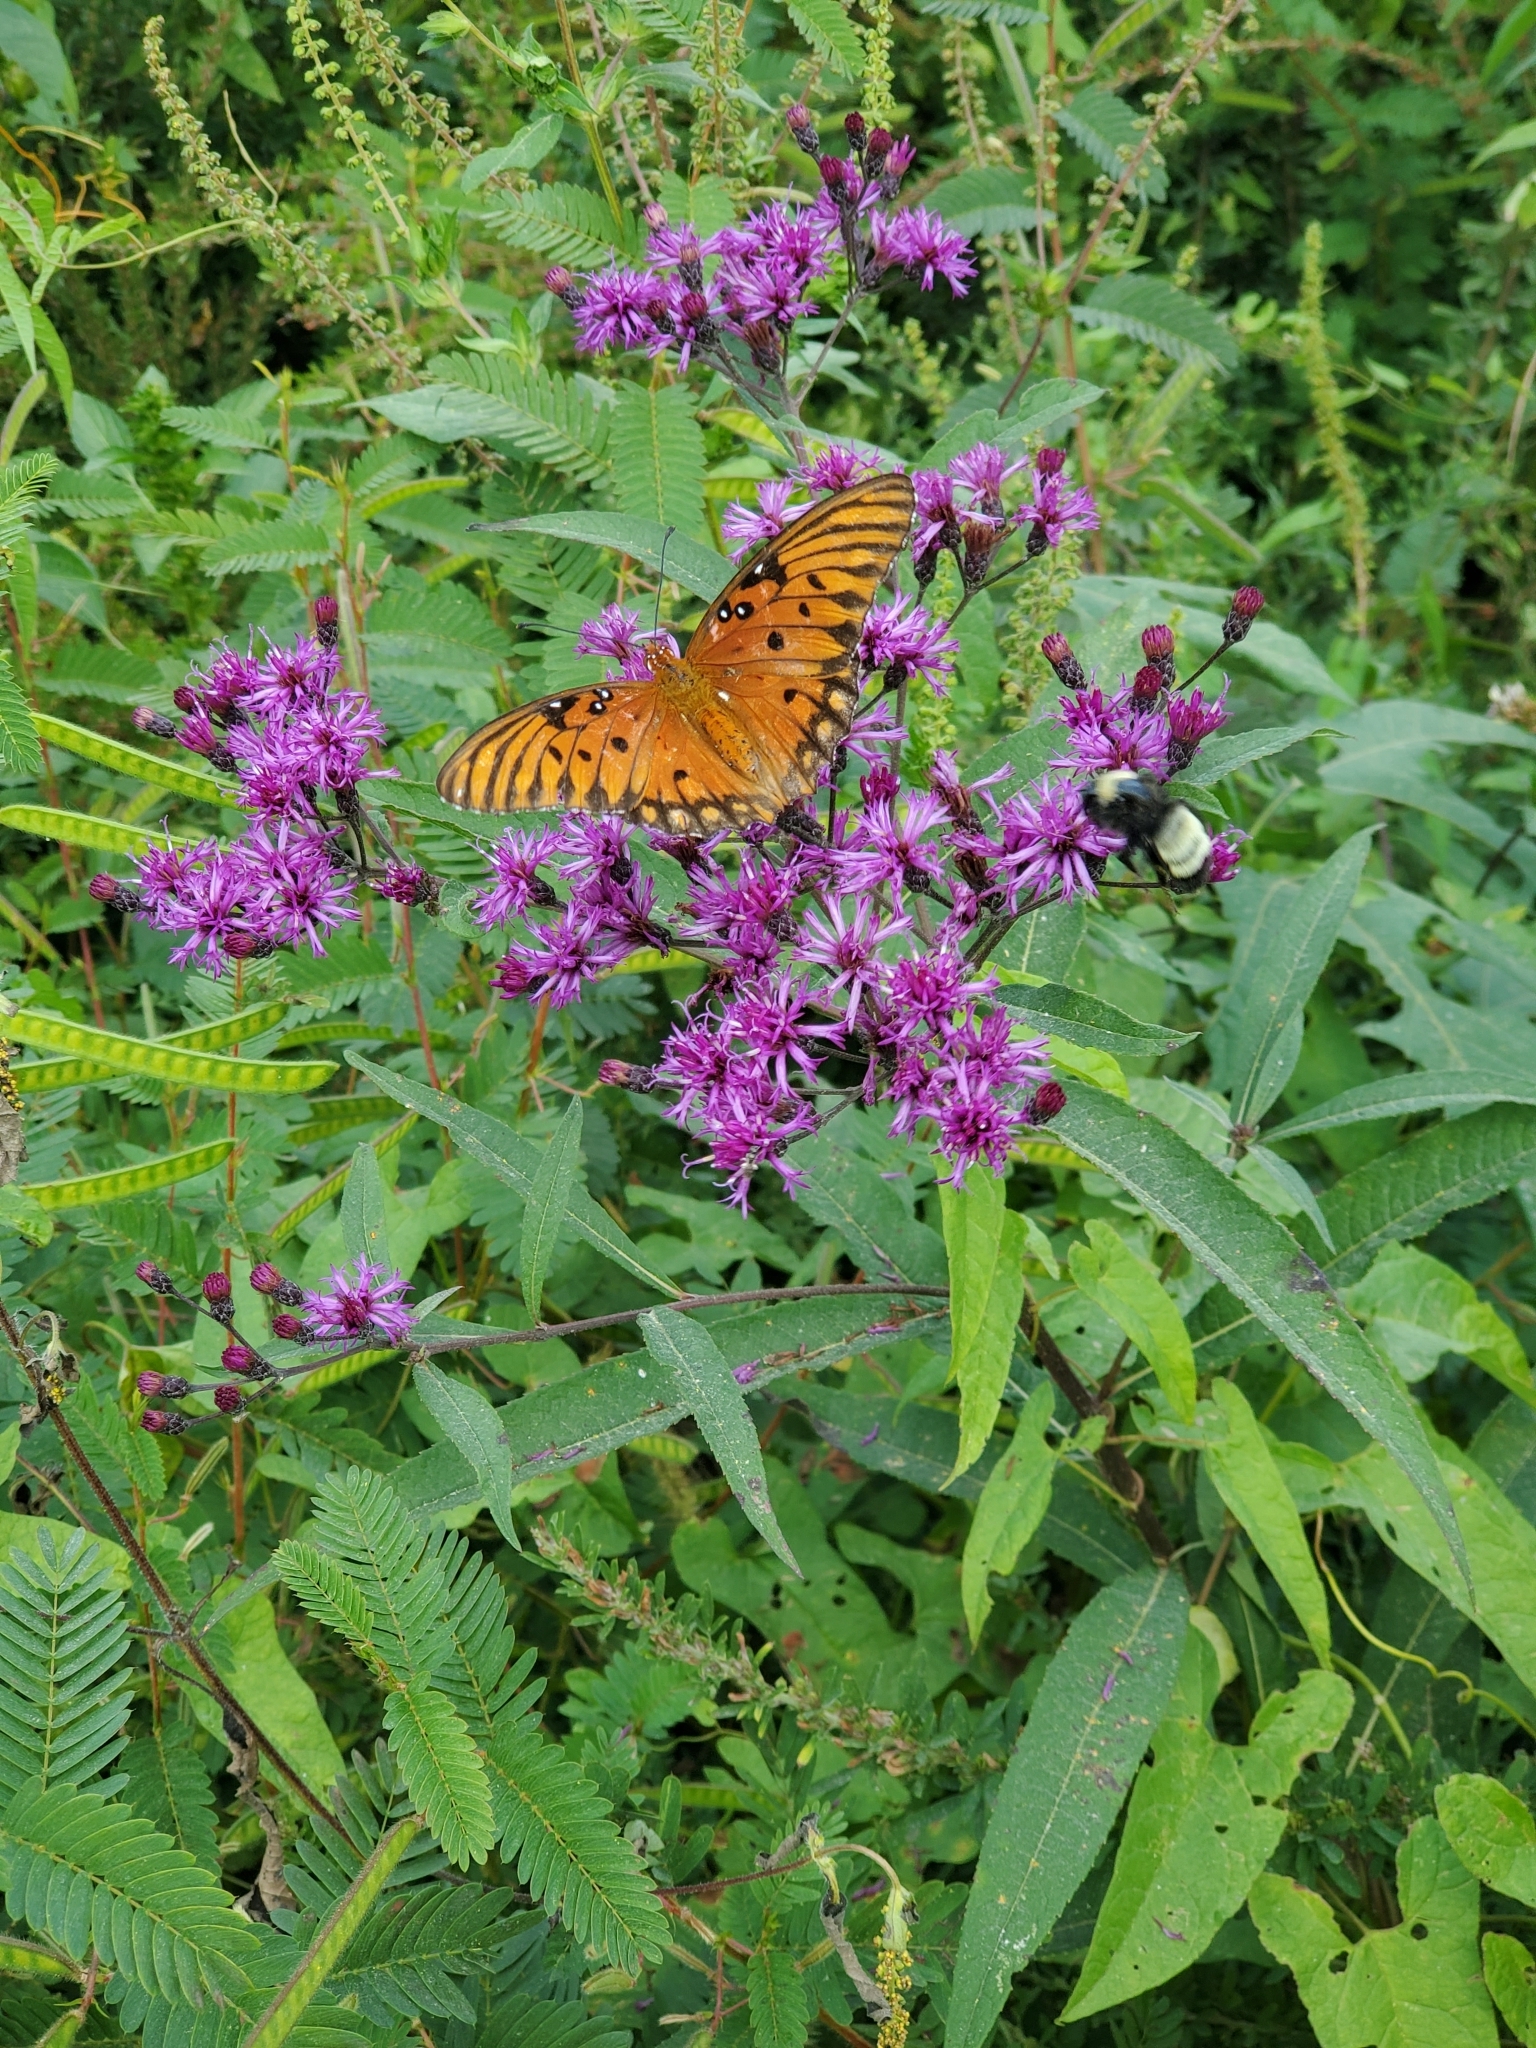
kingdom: Animalia
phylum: Arthropoda
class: Insecta
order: Lepidoptera
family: Nymphalidae
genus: Dione
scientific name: Dione vanillae
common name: Gulf fritillary
